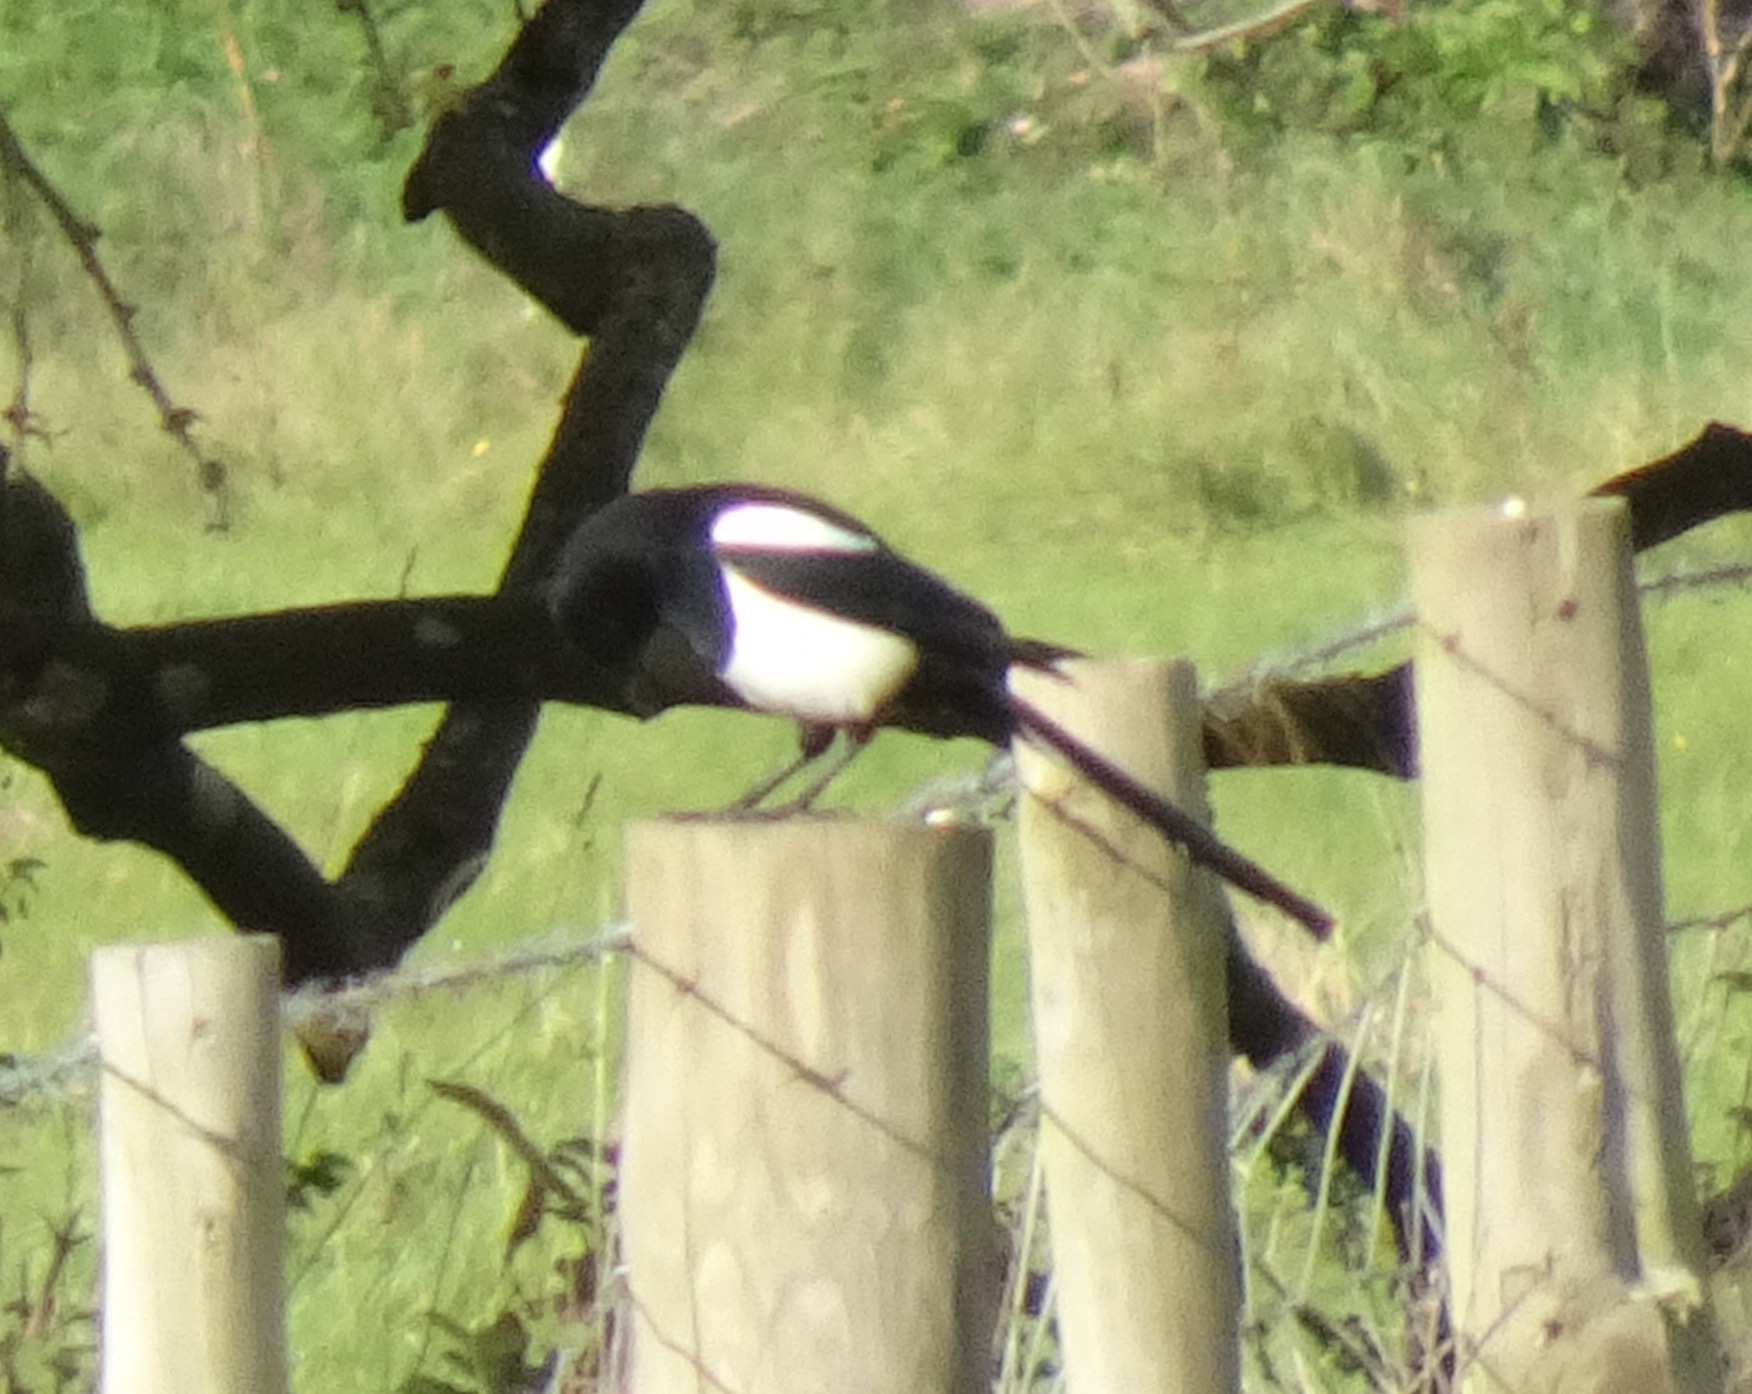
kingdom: Animalia
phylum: Chordata
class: Aves
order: Passeriformes
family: Corvidae
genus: Pica
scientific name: Pica pica
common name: Eurasian magpie
